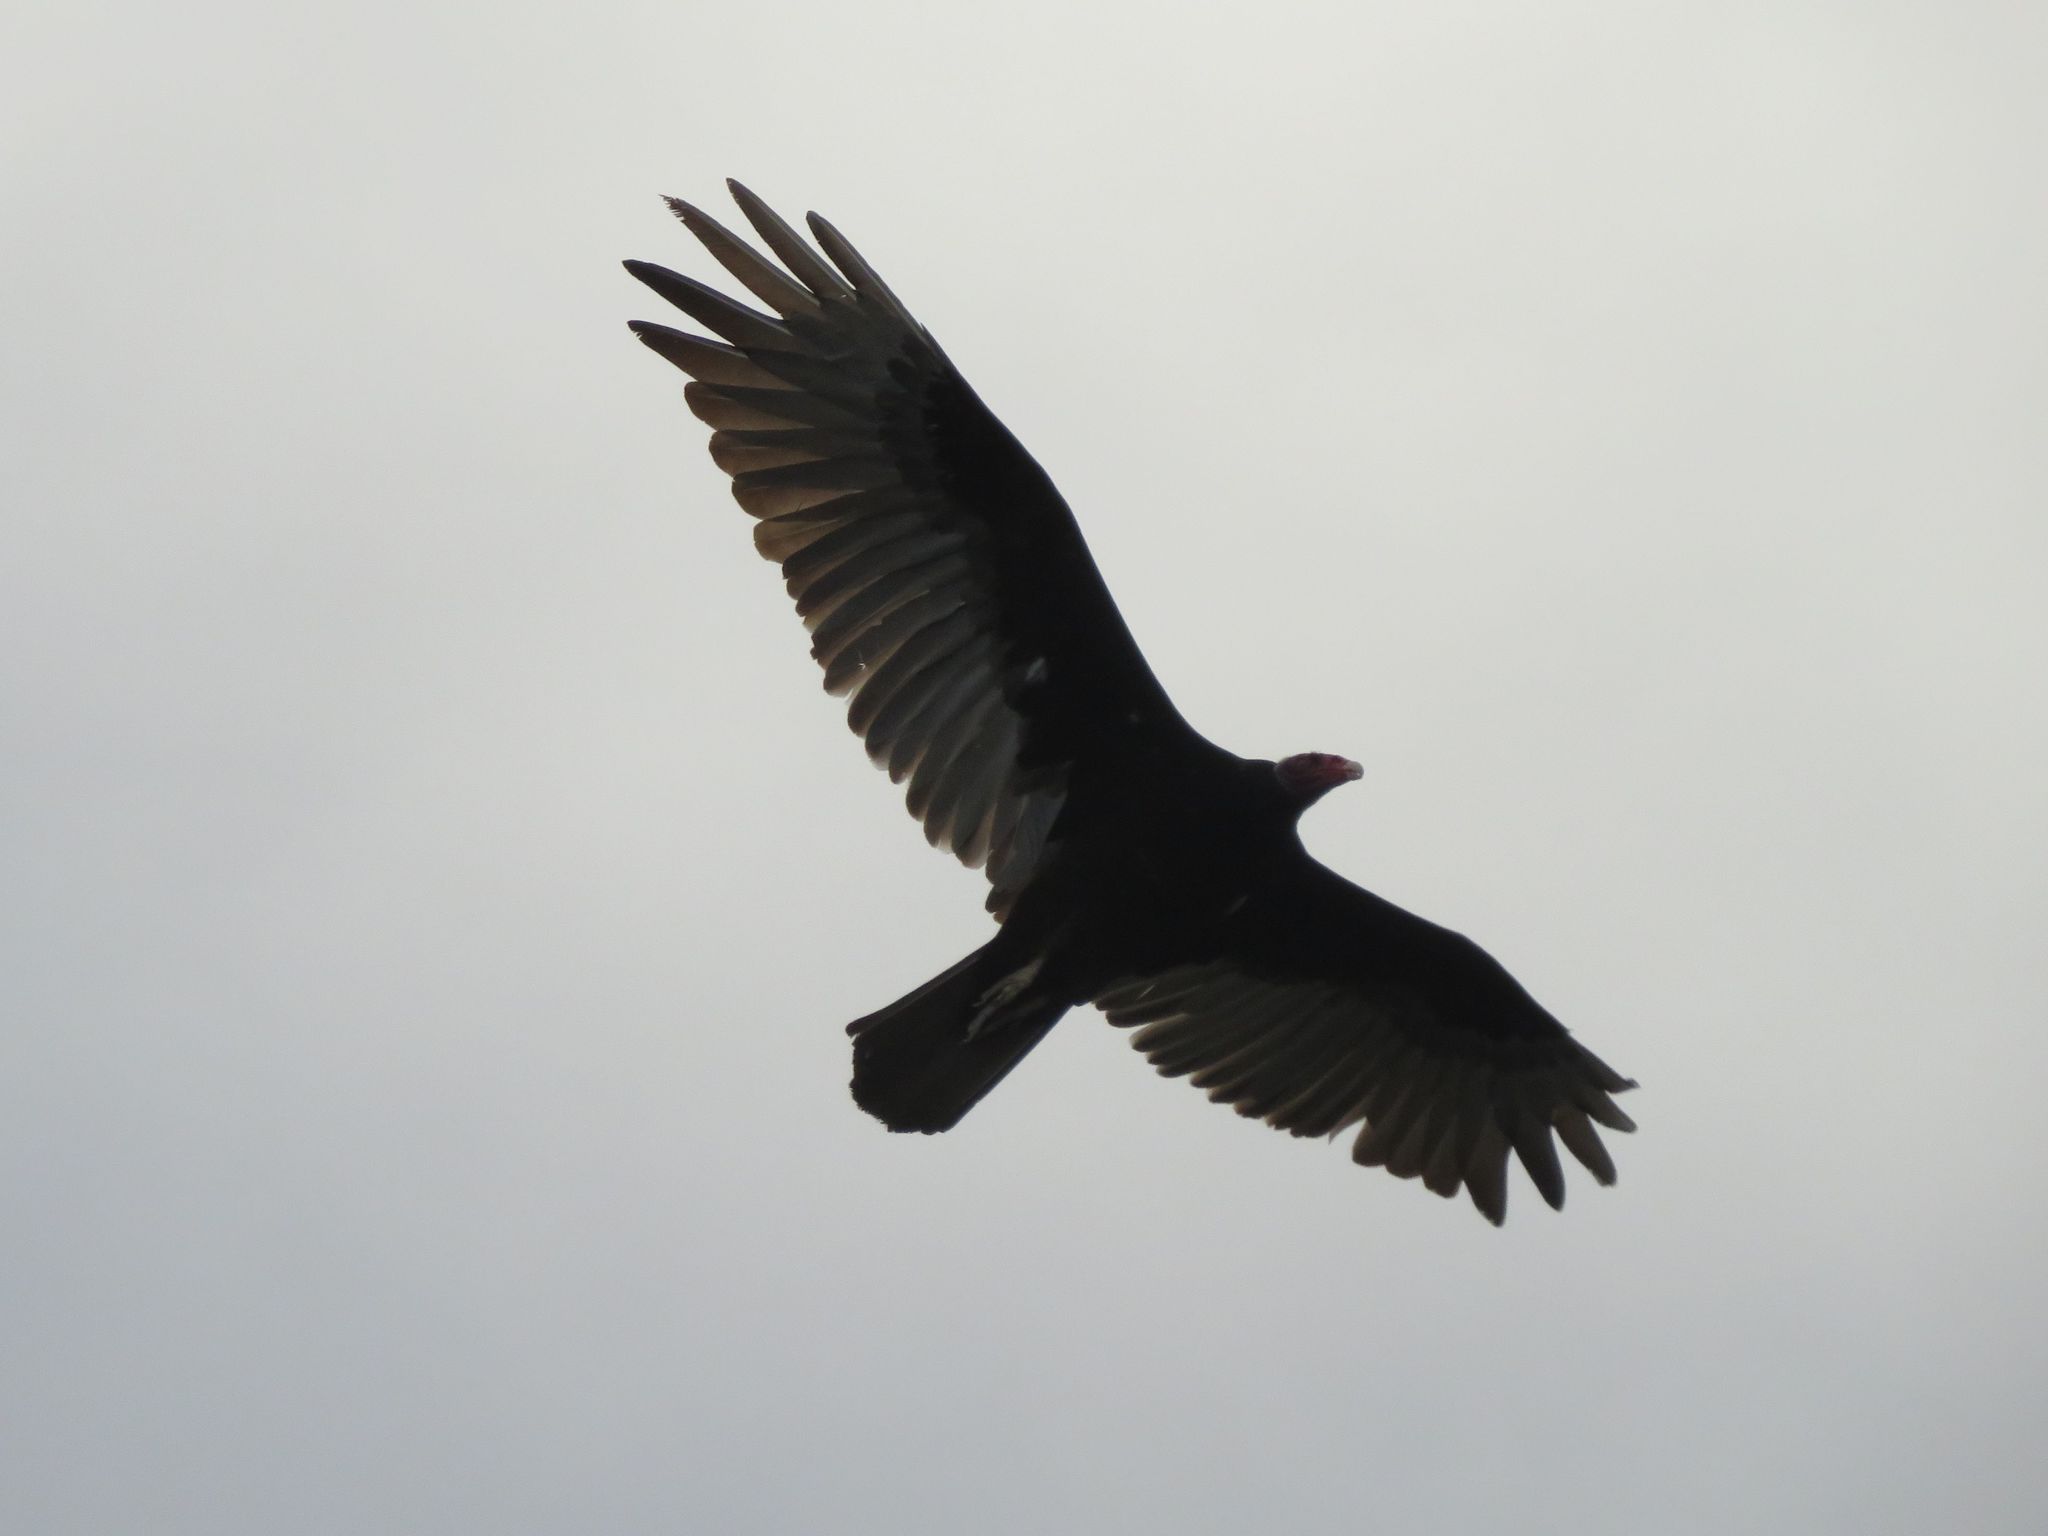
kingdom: Animalia
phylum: Chordata
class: Aves
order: Accipitriformes
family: Cathartidae
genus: Cathartes
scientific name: Cathartes aura
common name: Turkey vulture
